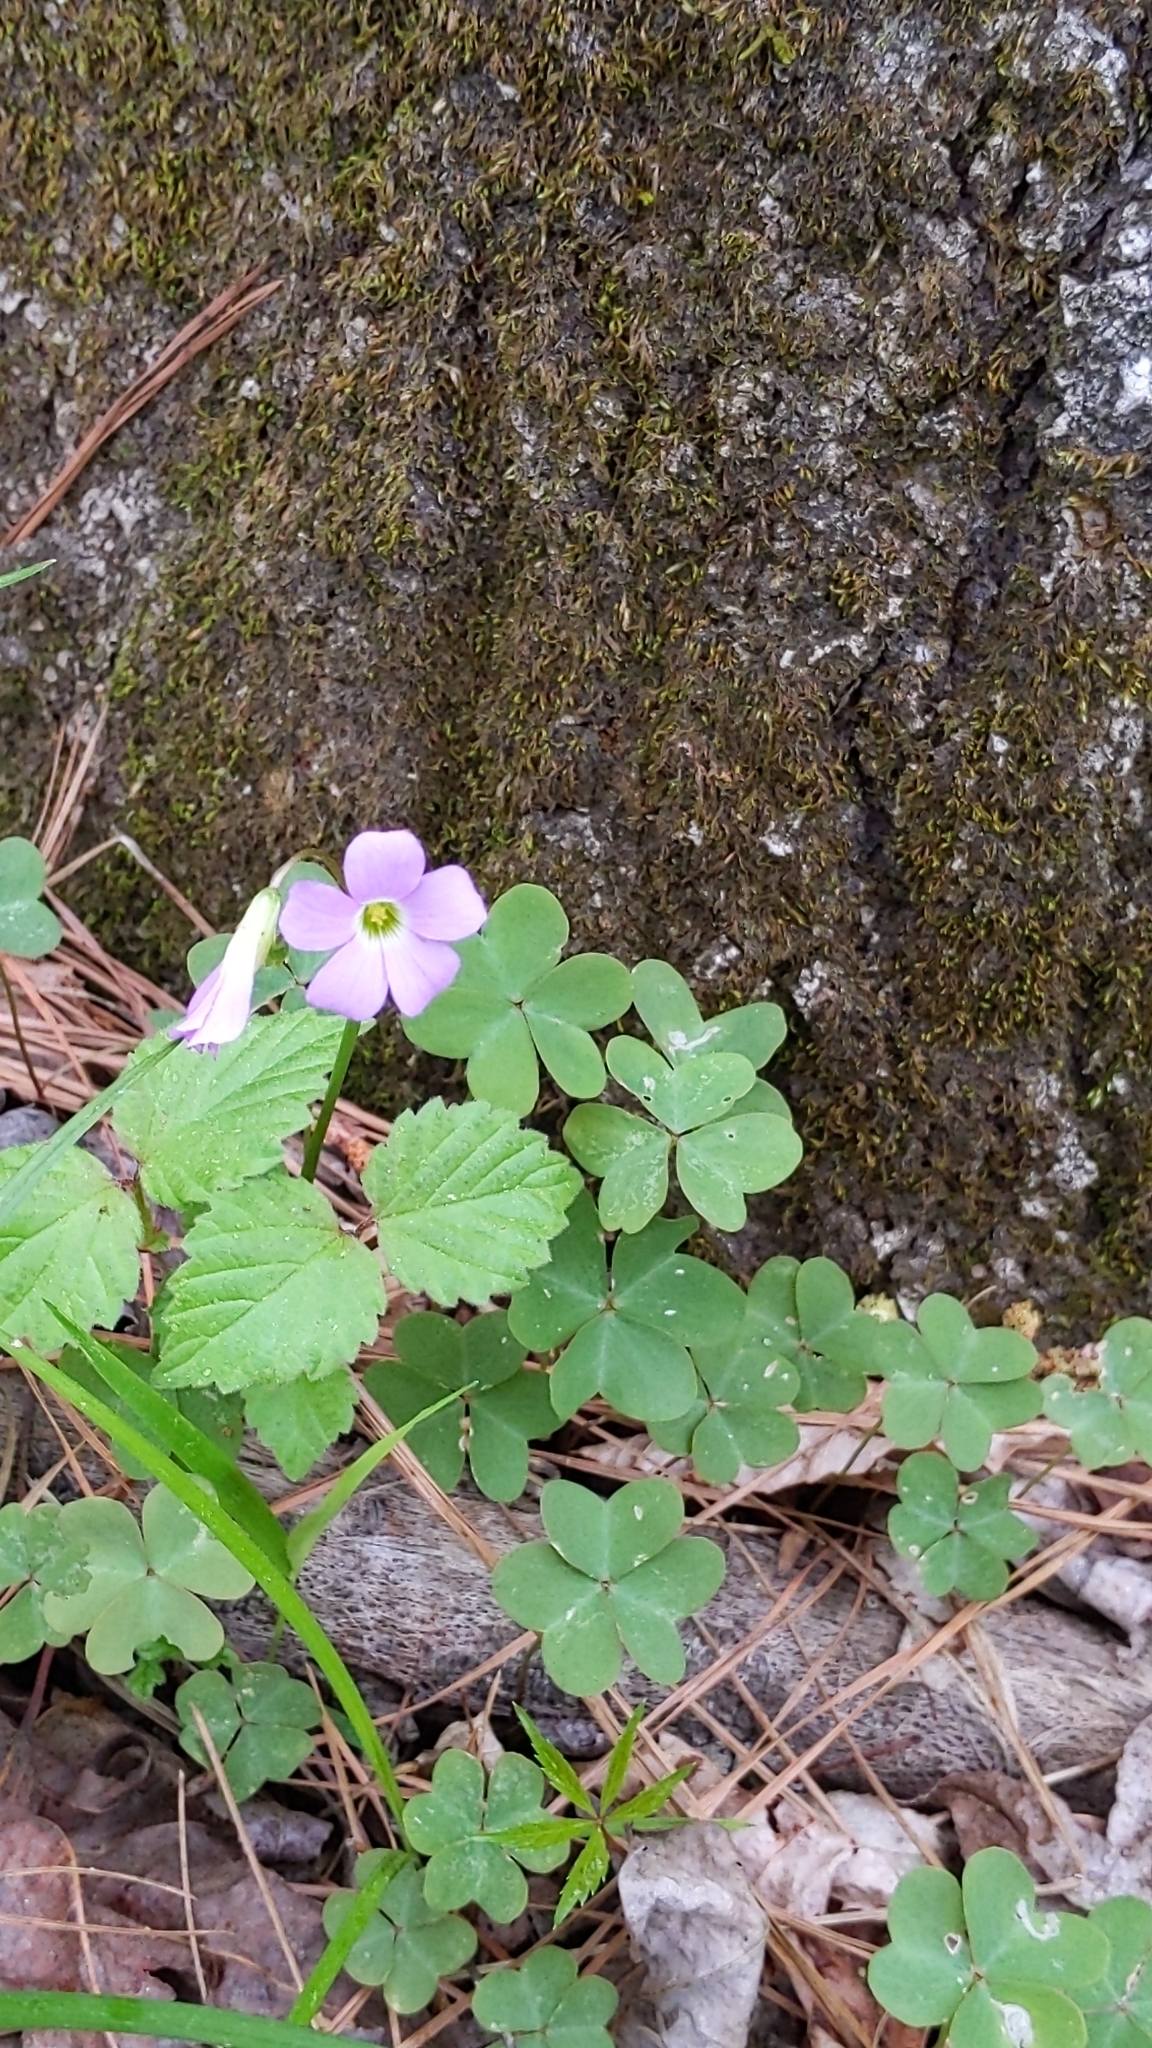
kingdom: Plantae
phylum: Tracheophyta
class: Magnoliopsida
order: Oxalidales
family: Oxalidaceae
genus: Oxalis
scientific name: Oxalis violacea
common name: Violet wood-sorrel
